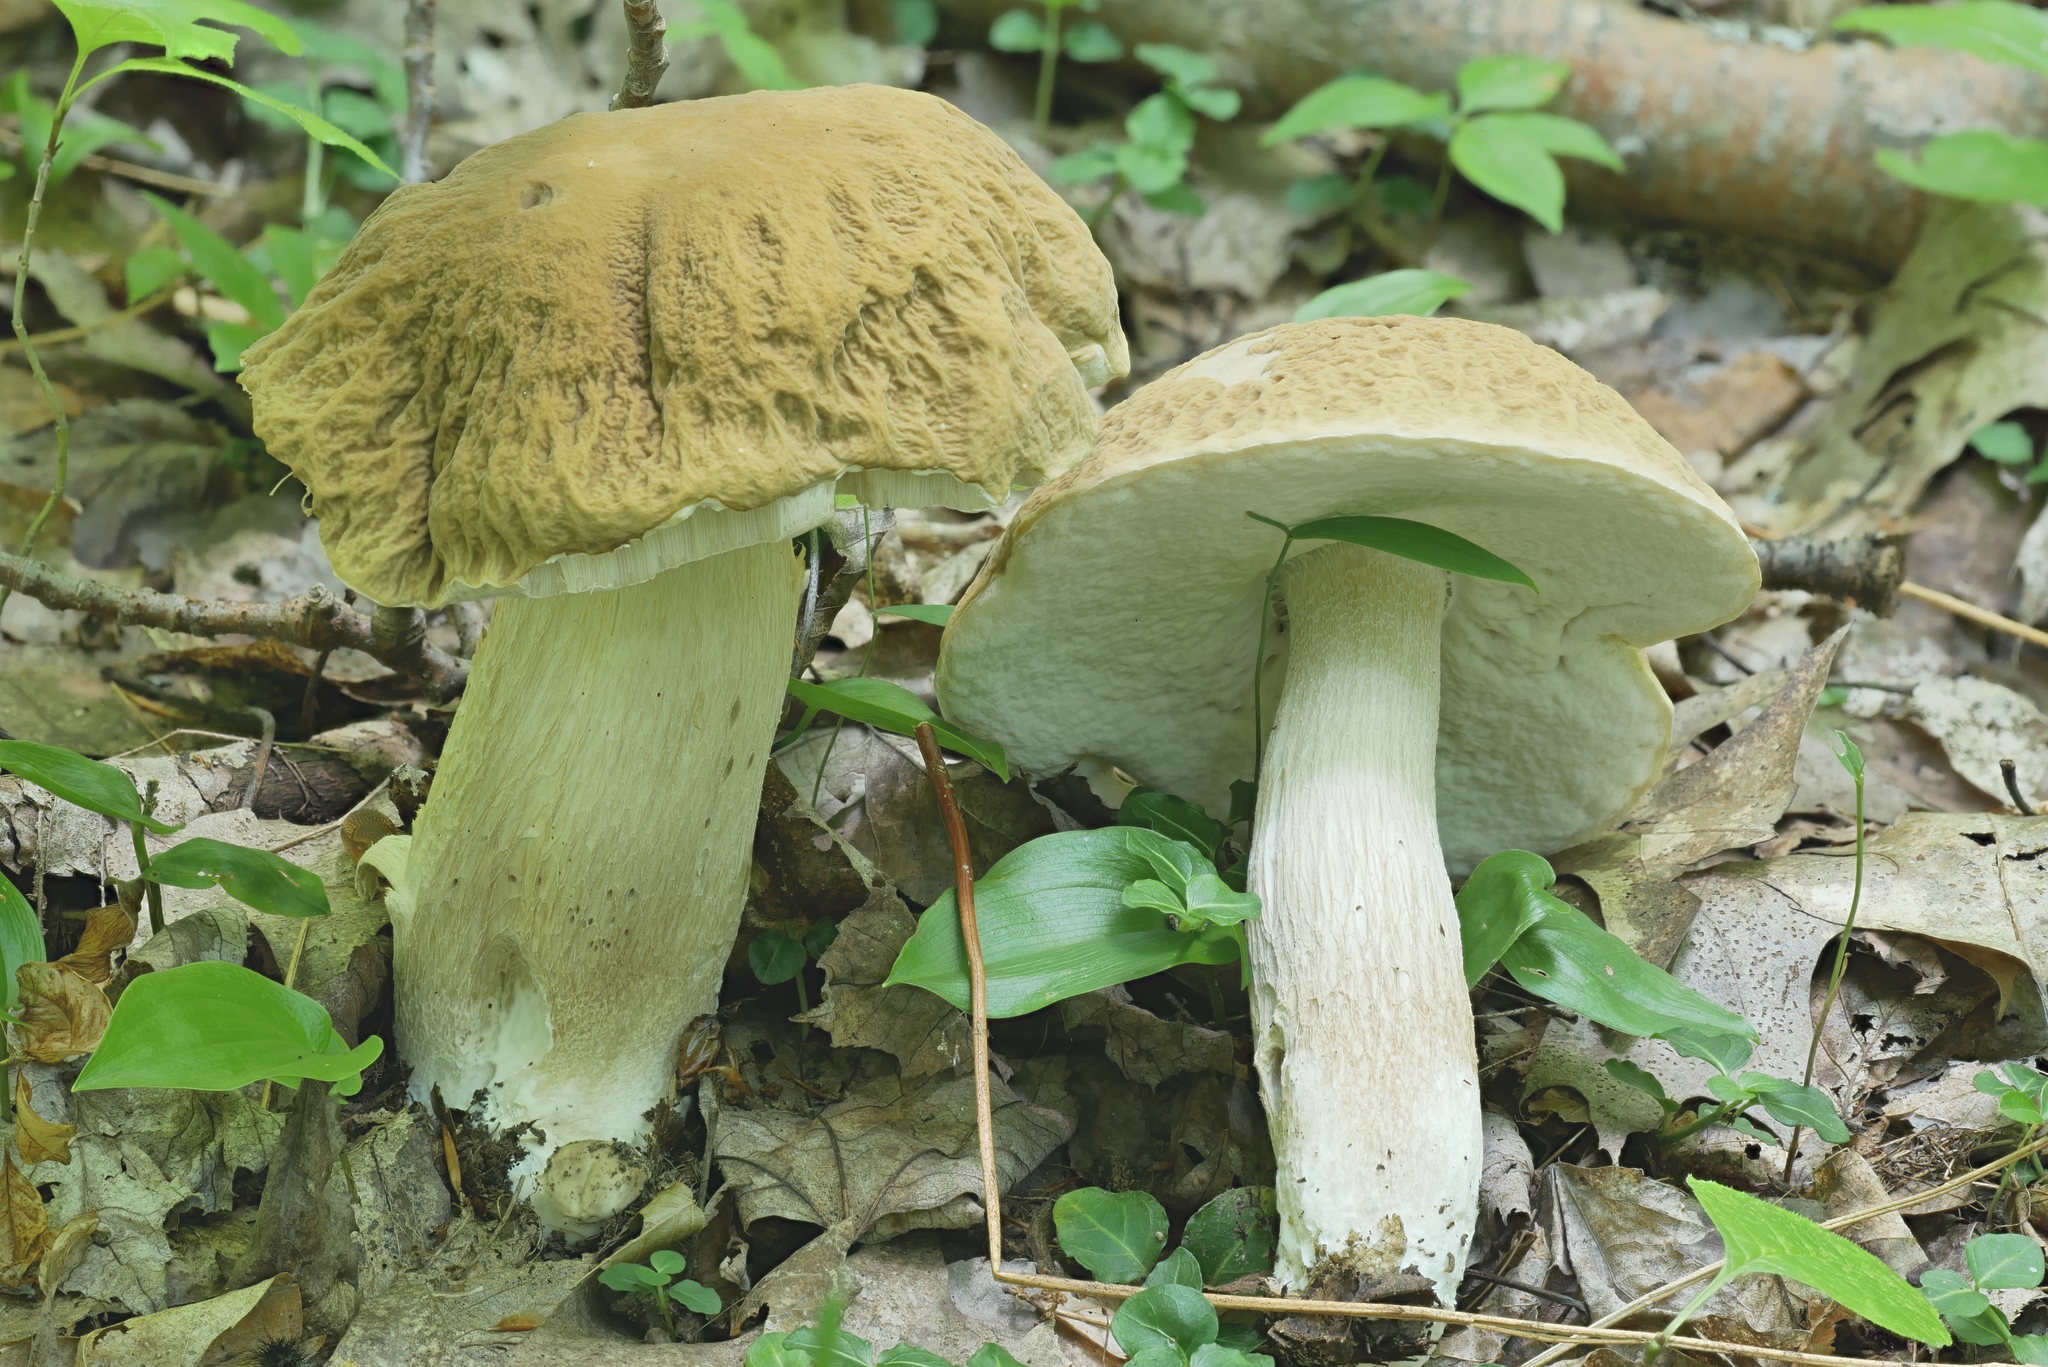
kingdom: Fungi
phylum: Basidiomycota
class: Agaricomycetes
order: Boletales
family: Boletaceae
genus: Boletus
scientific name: Boletus nobilis
